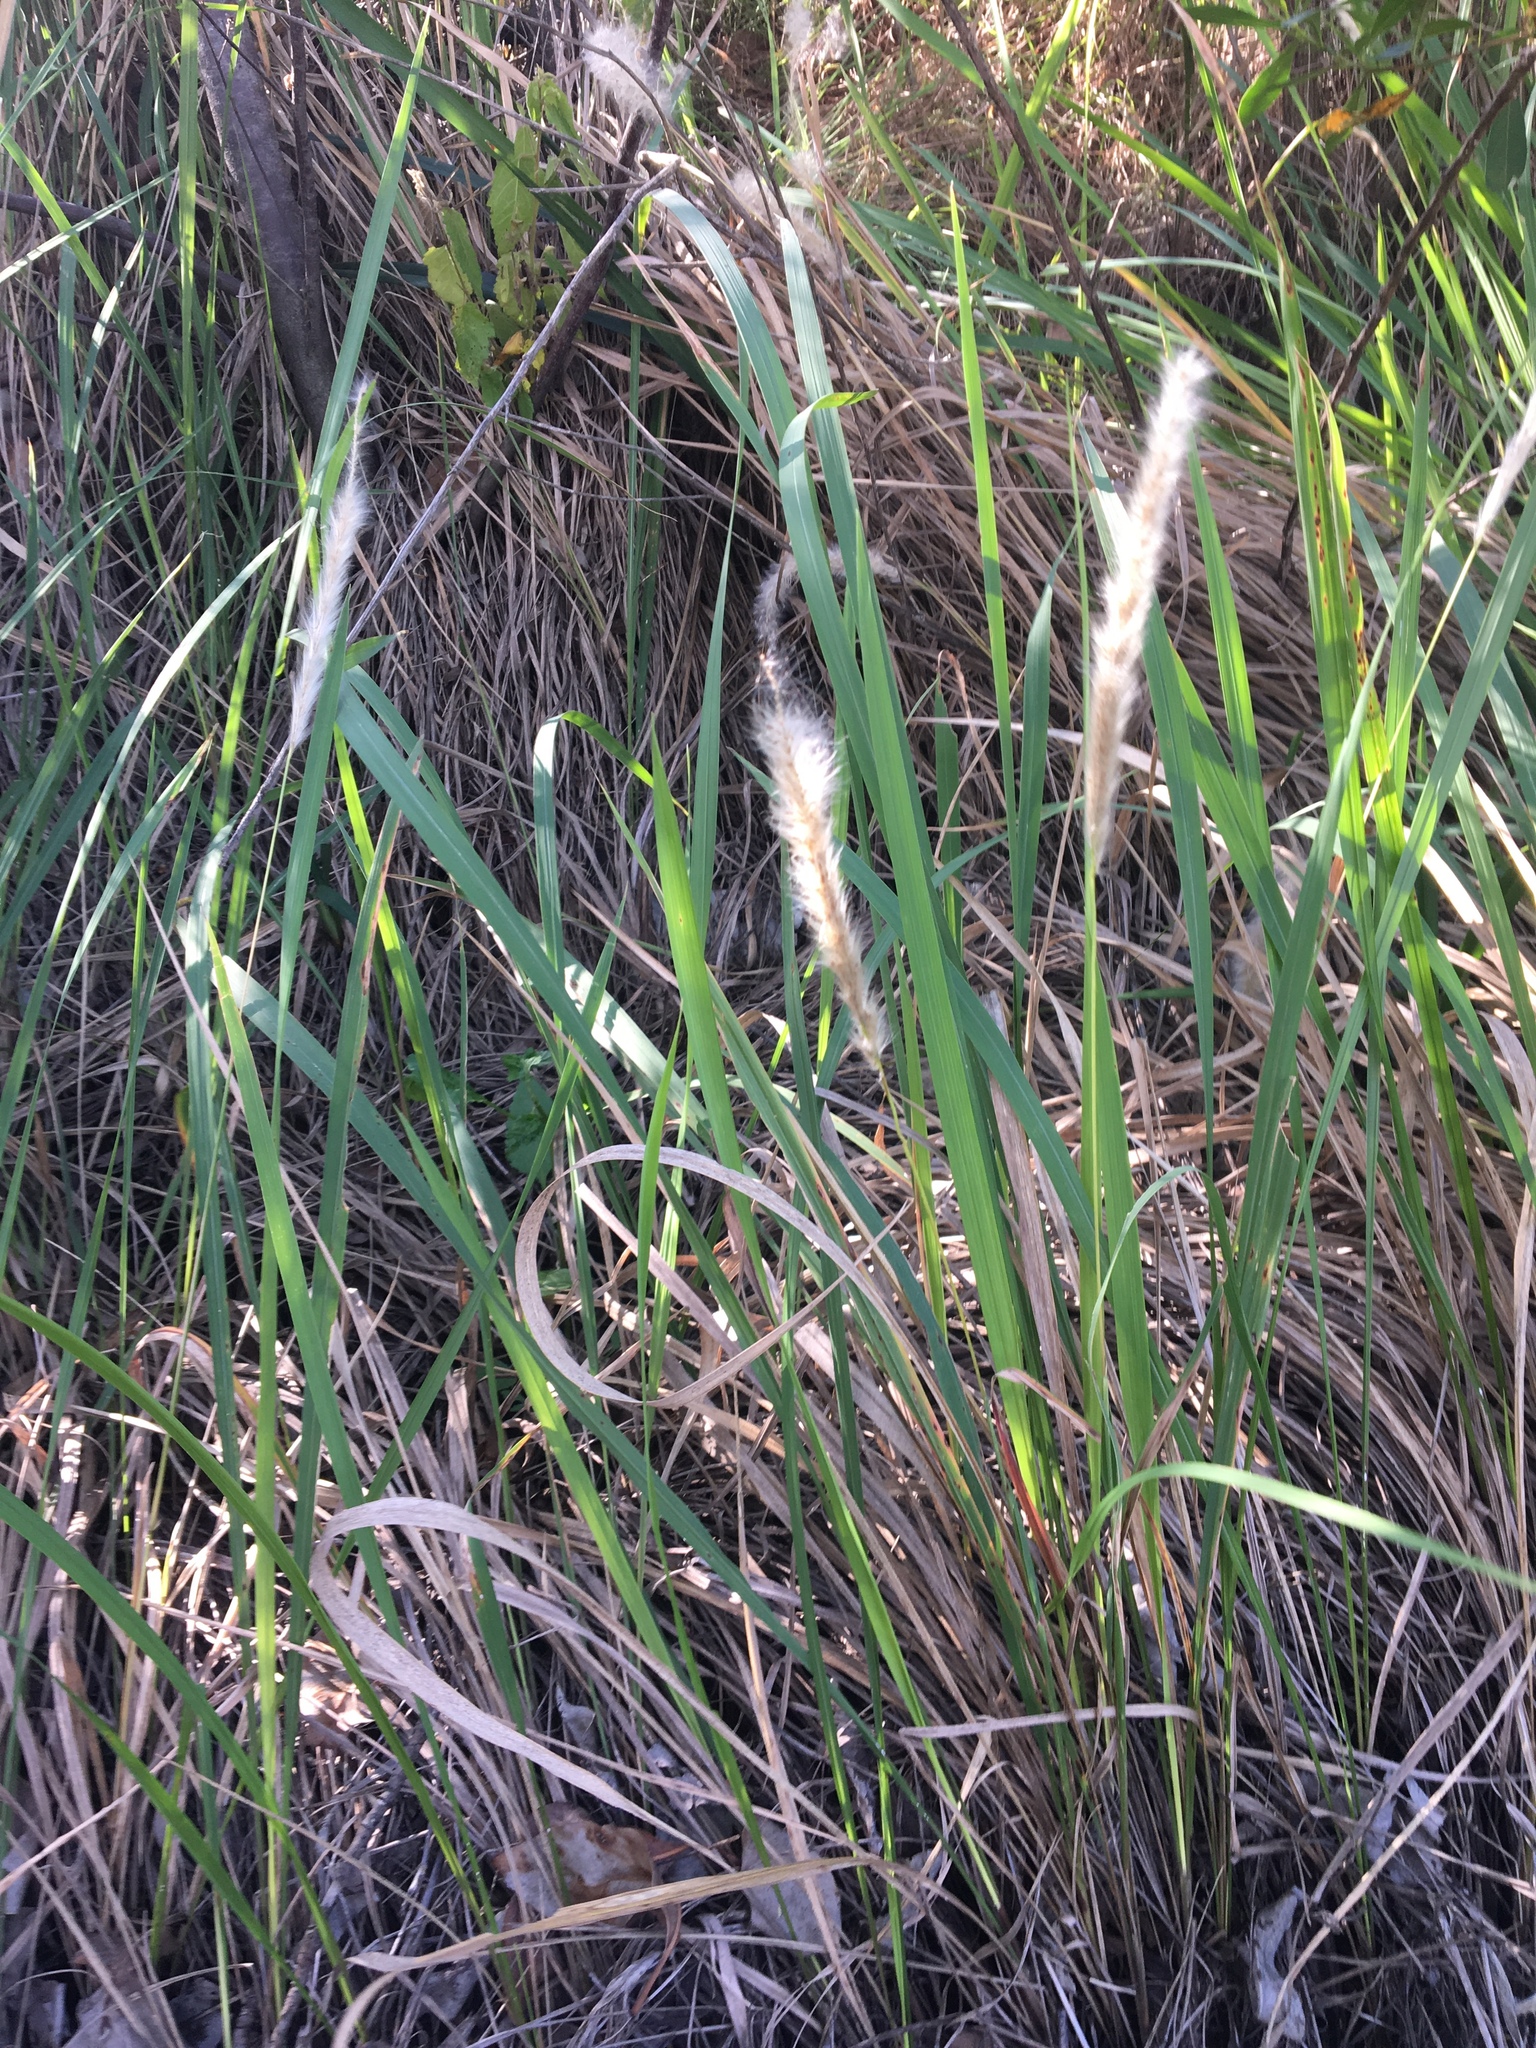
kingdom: Plantae
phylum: Tracheophyta
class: Liliopsida
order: Poales
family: Poaceae
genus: Imperata
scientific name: Imperata cylindrica
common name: Cogongrass
